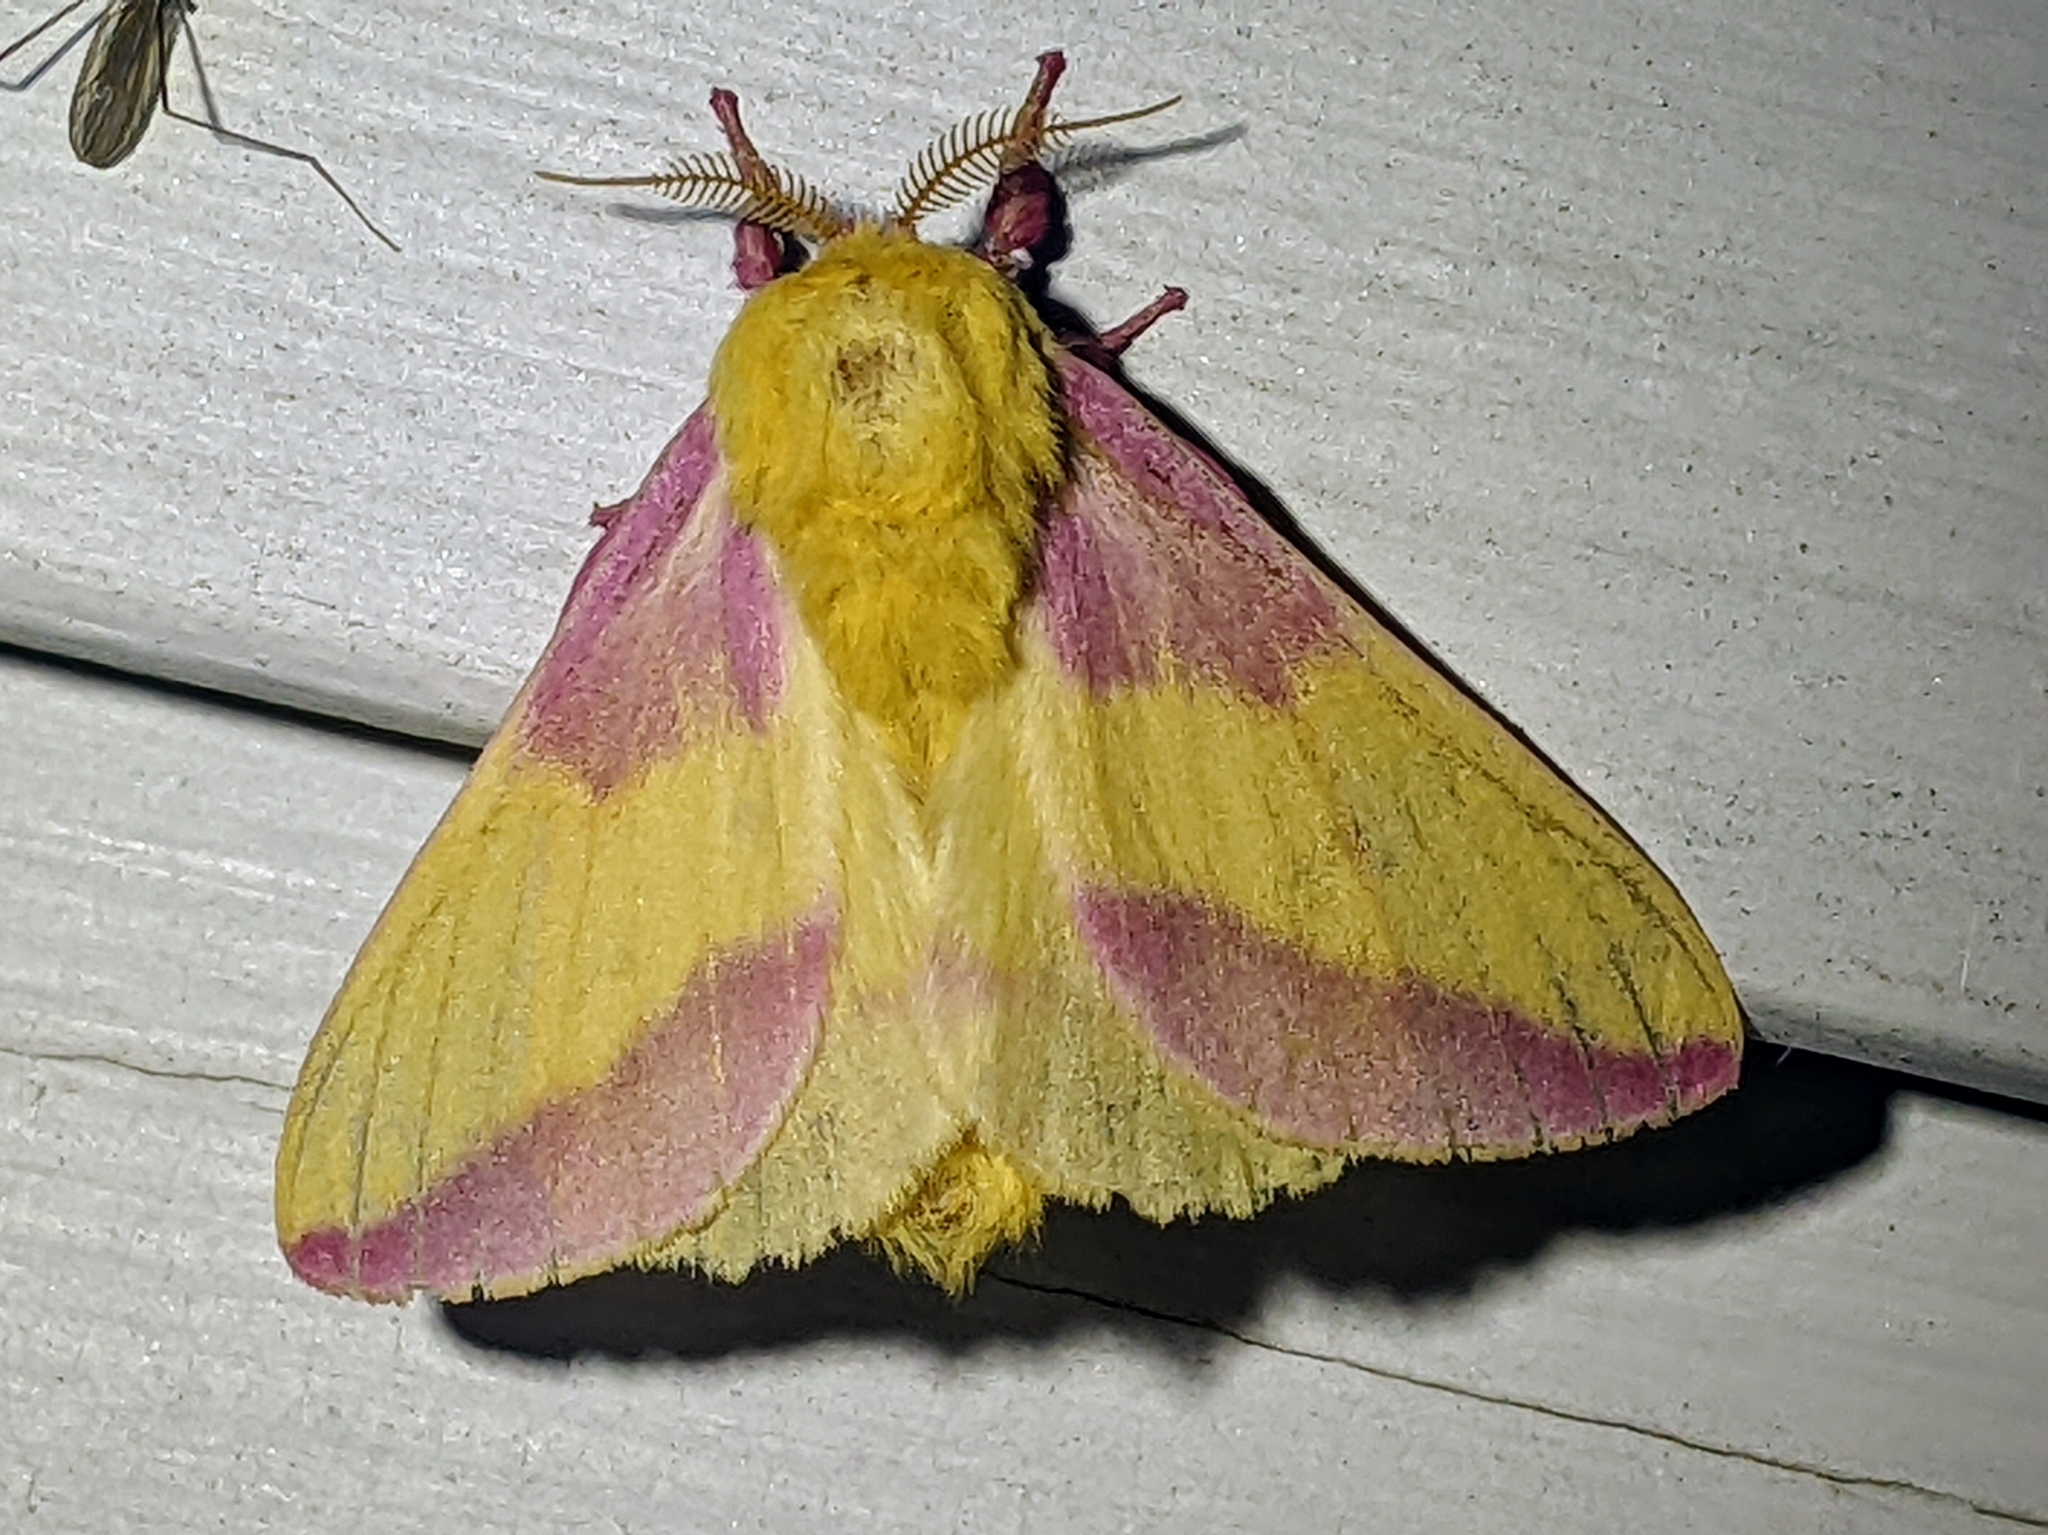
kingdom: Animalia
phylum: Arthropoda
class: Insecta
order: Lepidoptera
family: Saturniidae
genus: Dryocampa
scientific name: Dryocampa rubicunda
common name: Rosy maple moth
